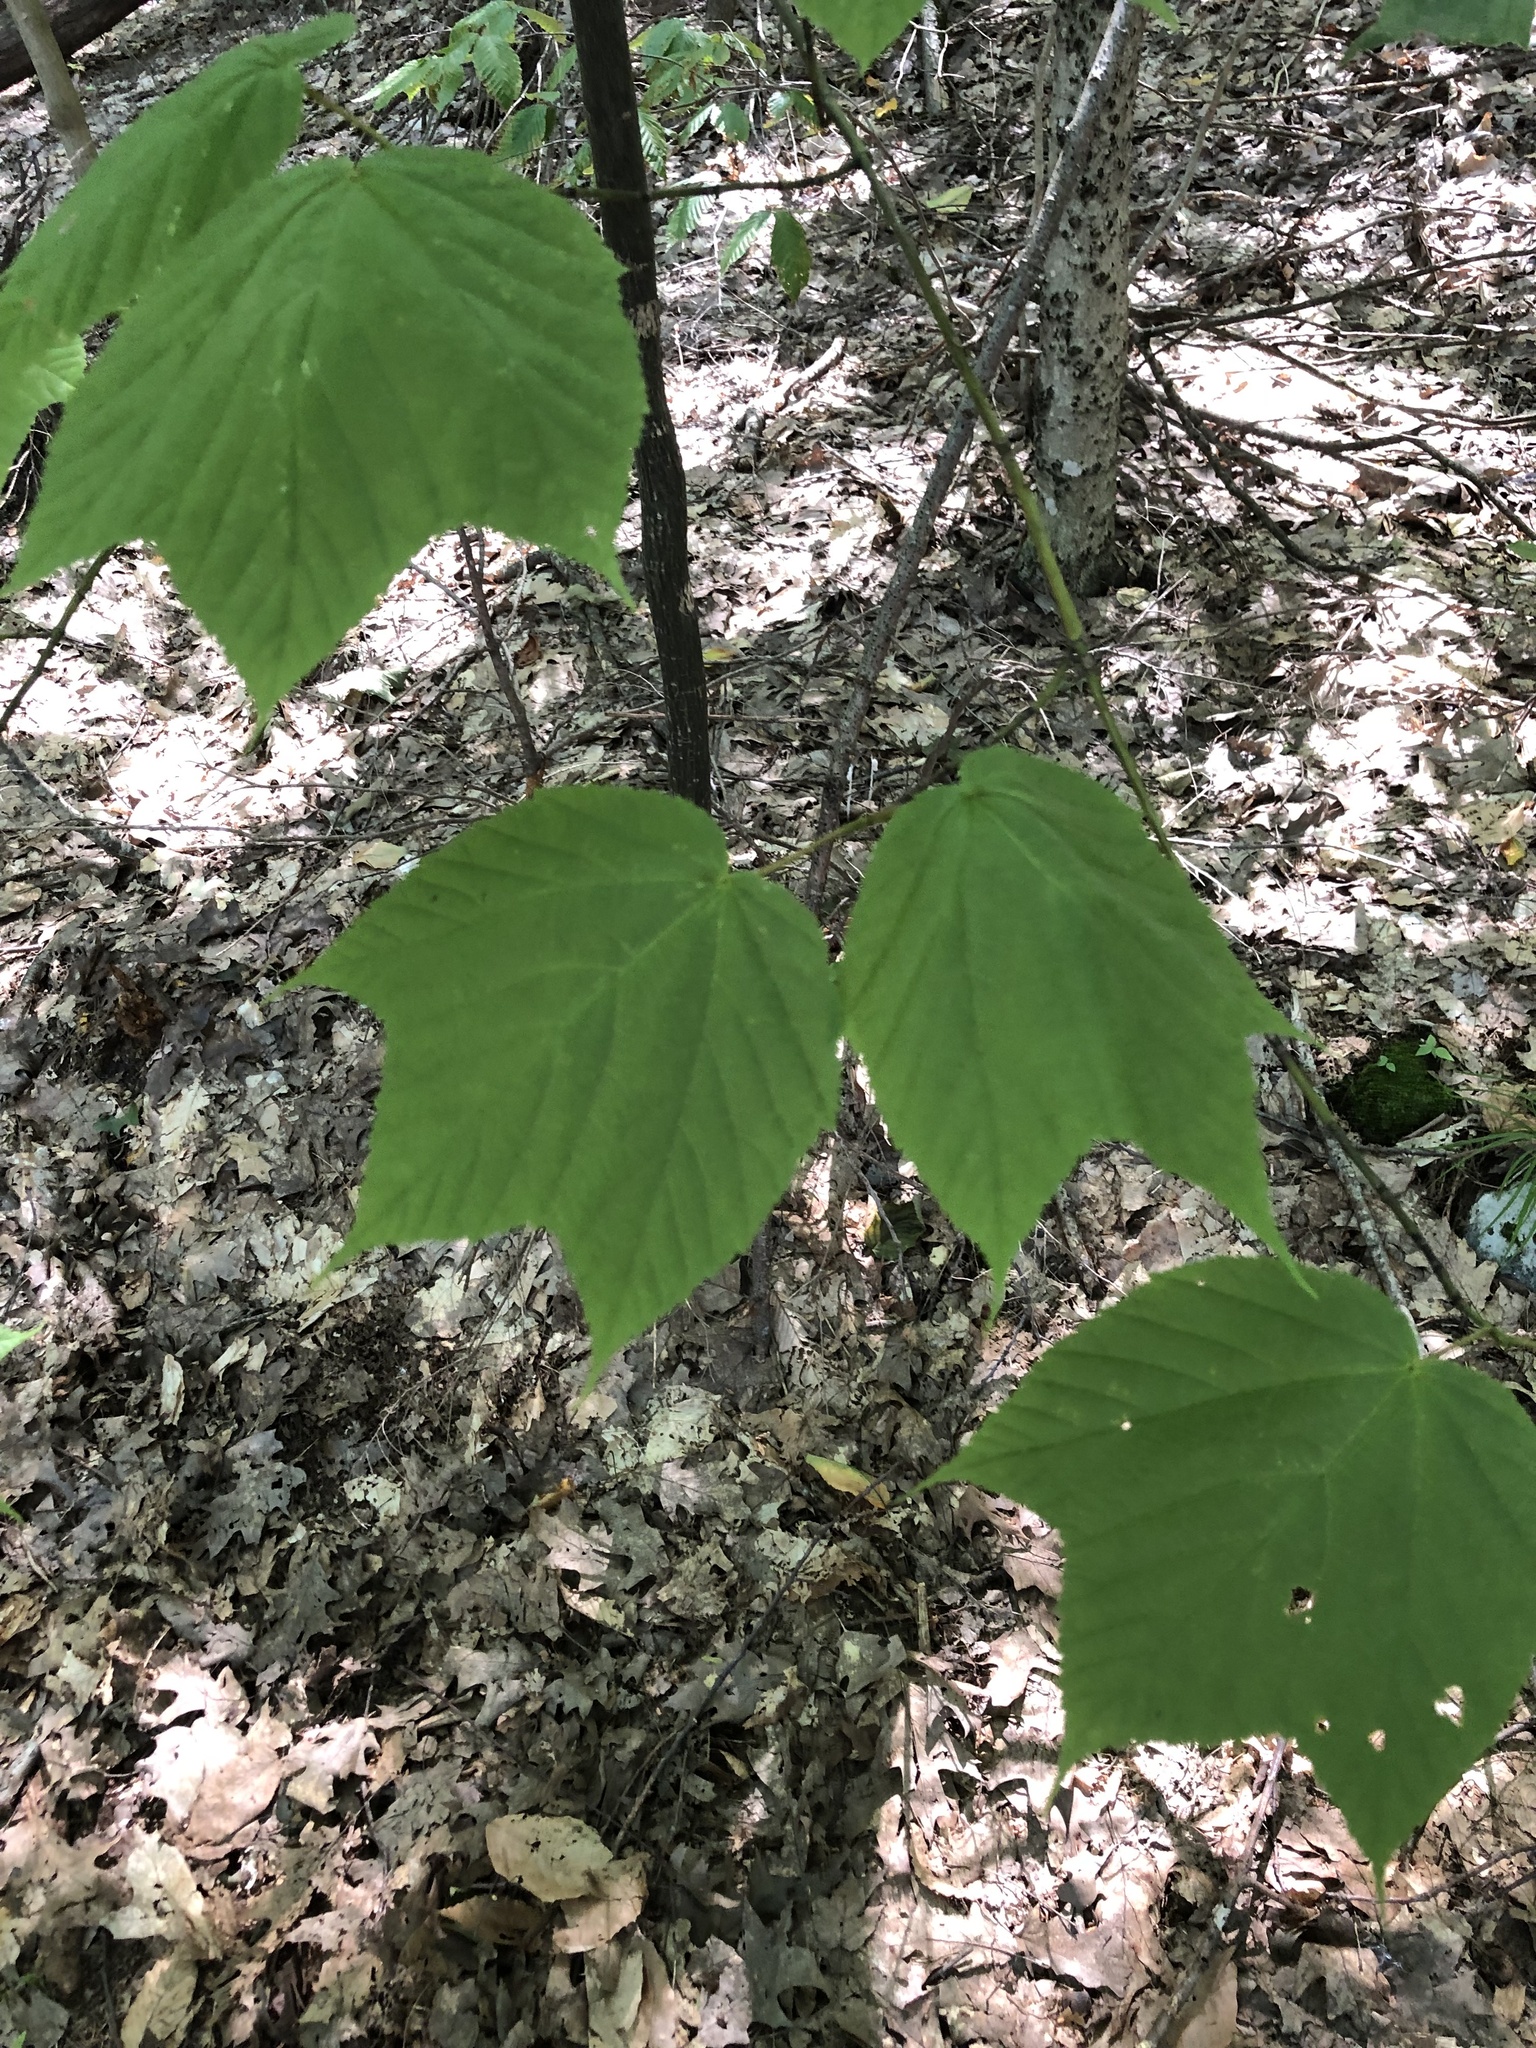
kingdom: Plantae
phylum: Tracheophyta
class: Magnoliopsida
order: Sapindales
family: Sapindaceae
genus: Acer
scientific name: Acer pensylvanicum
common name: Moosewood
